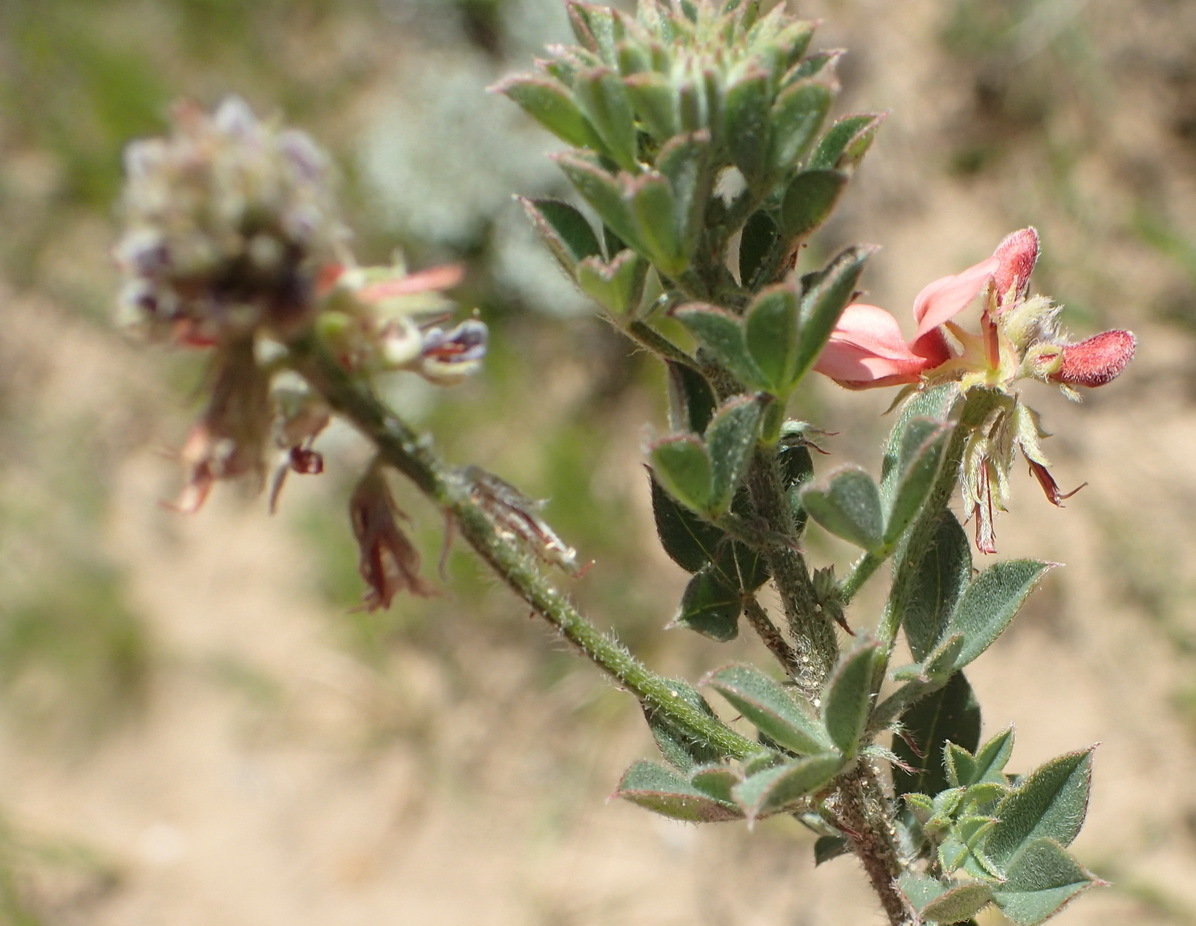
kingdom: Plantae
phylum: Tracheophyta
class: Magnoliopsida
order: Fabales
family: Fabaceae
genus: Indigofera
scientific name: Indigofera porrecta
